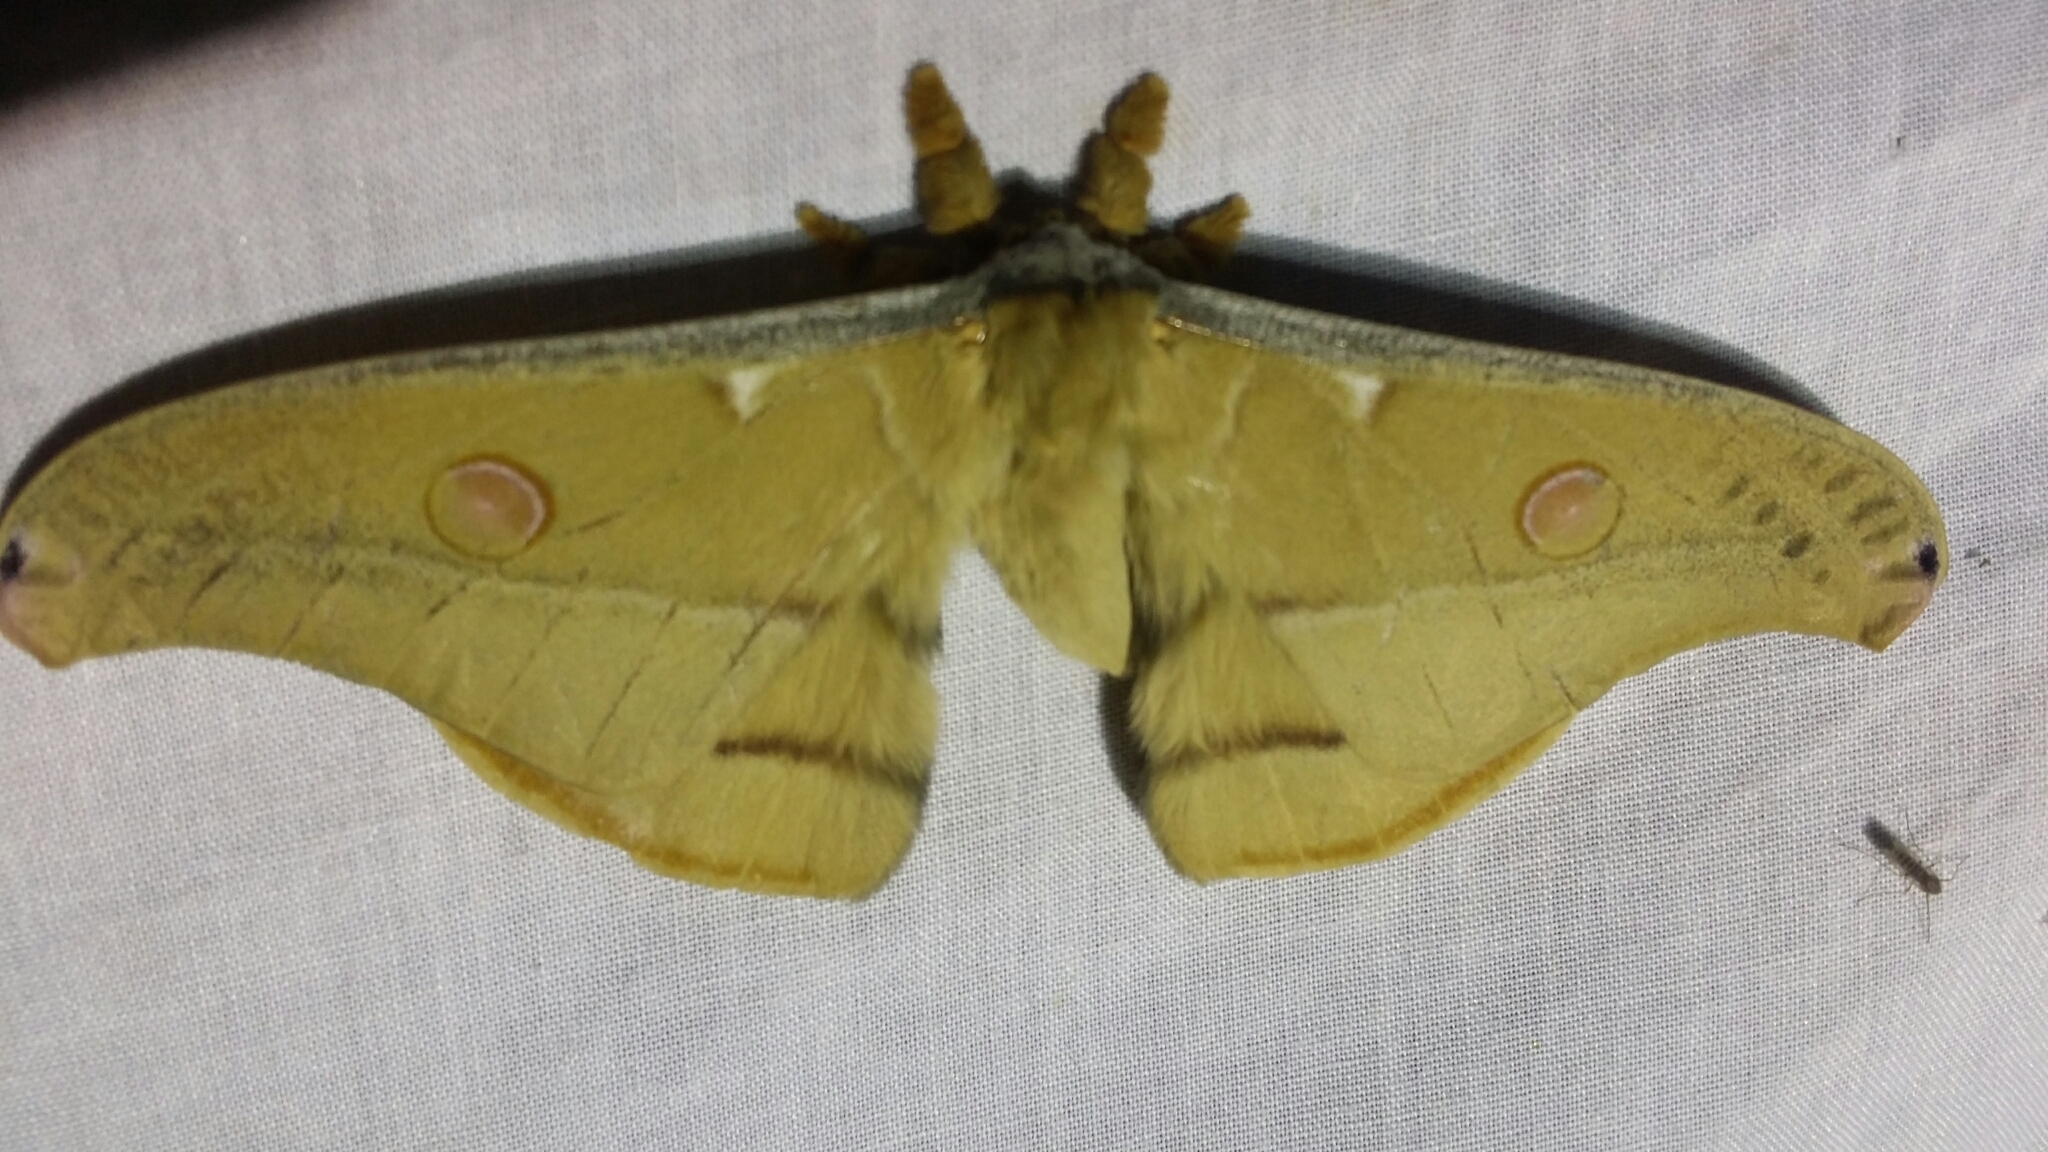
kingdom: Animalia
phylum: Arthropoda
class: Insecta
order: Lepidoptera
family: Saturniidae
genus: Opodiphthera
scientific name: Opodiphthera
